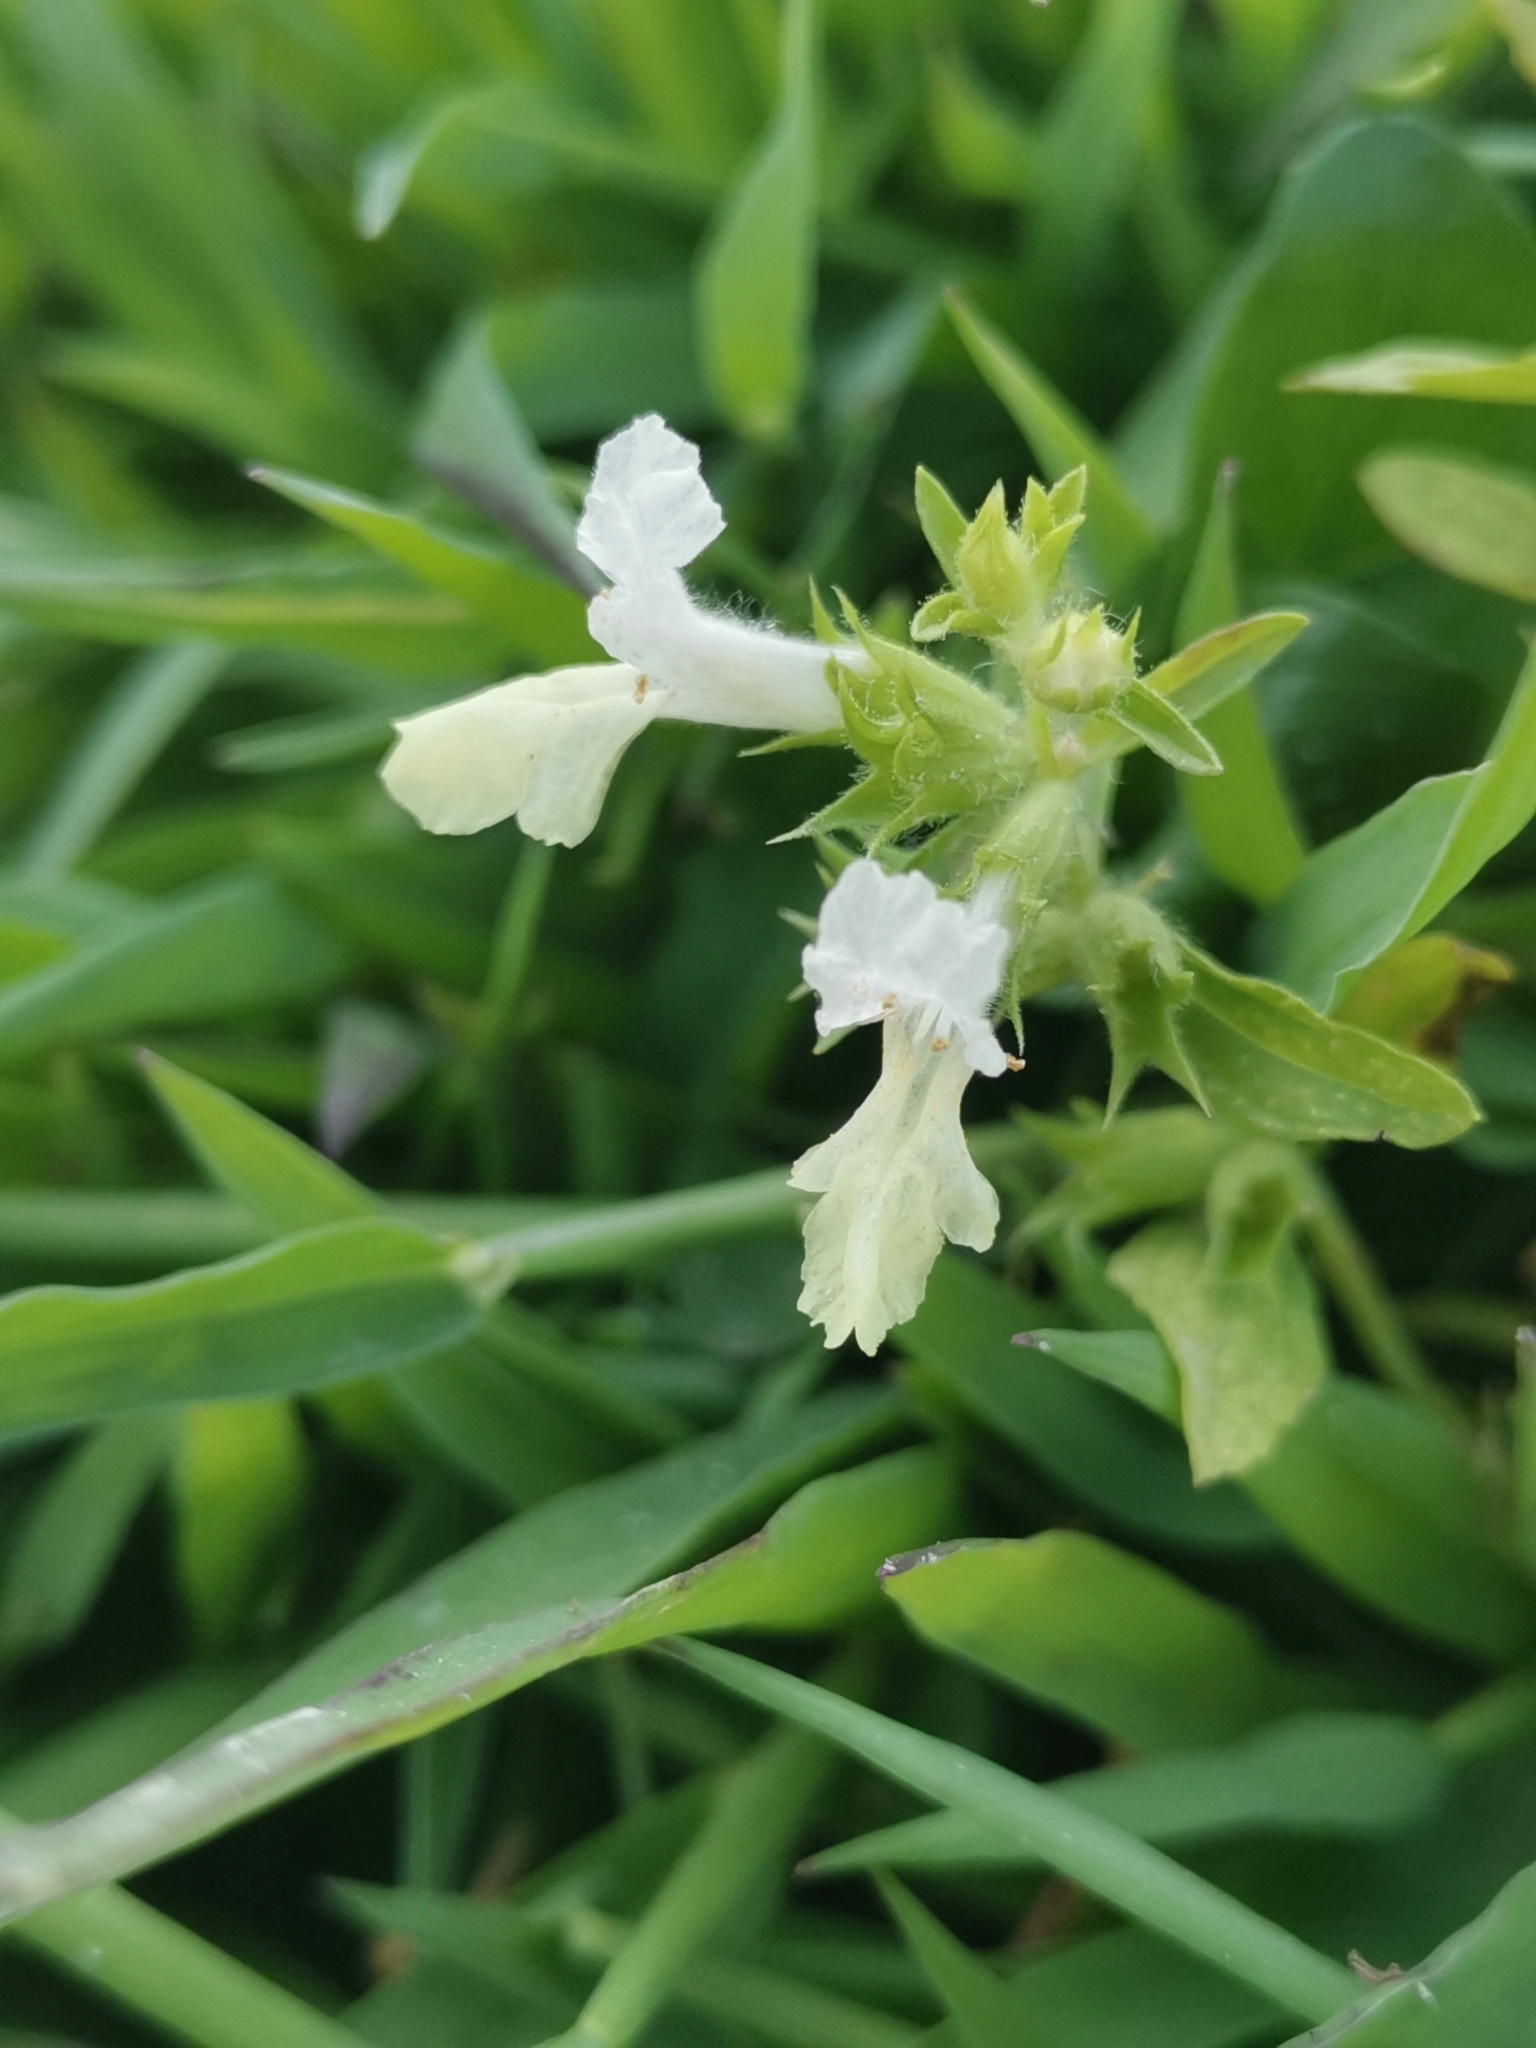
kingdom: Plantae
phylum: Tracheophyta
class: Magnoliopsida
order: Lamiales
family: Lamiaceae
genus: Stachys
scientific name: Stachys annua
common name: Annual yellow-woundwort
